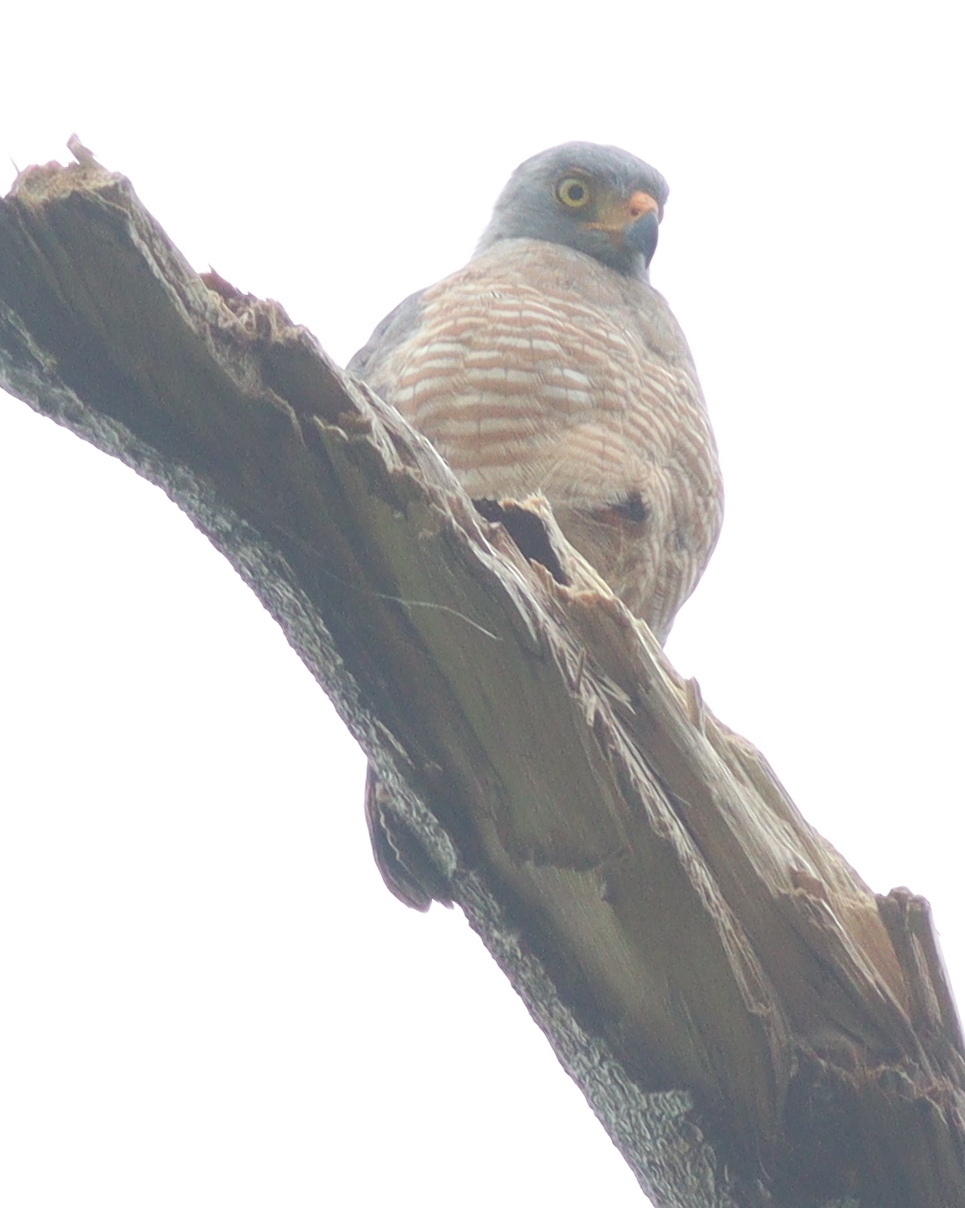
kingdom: Animalia
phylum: Chordata
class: Aves
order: Accipitriformes
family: Accipitridae
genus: Rupornis
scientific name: Rupornis magnirostris
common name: Roadside hawk
